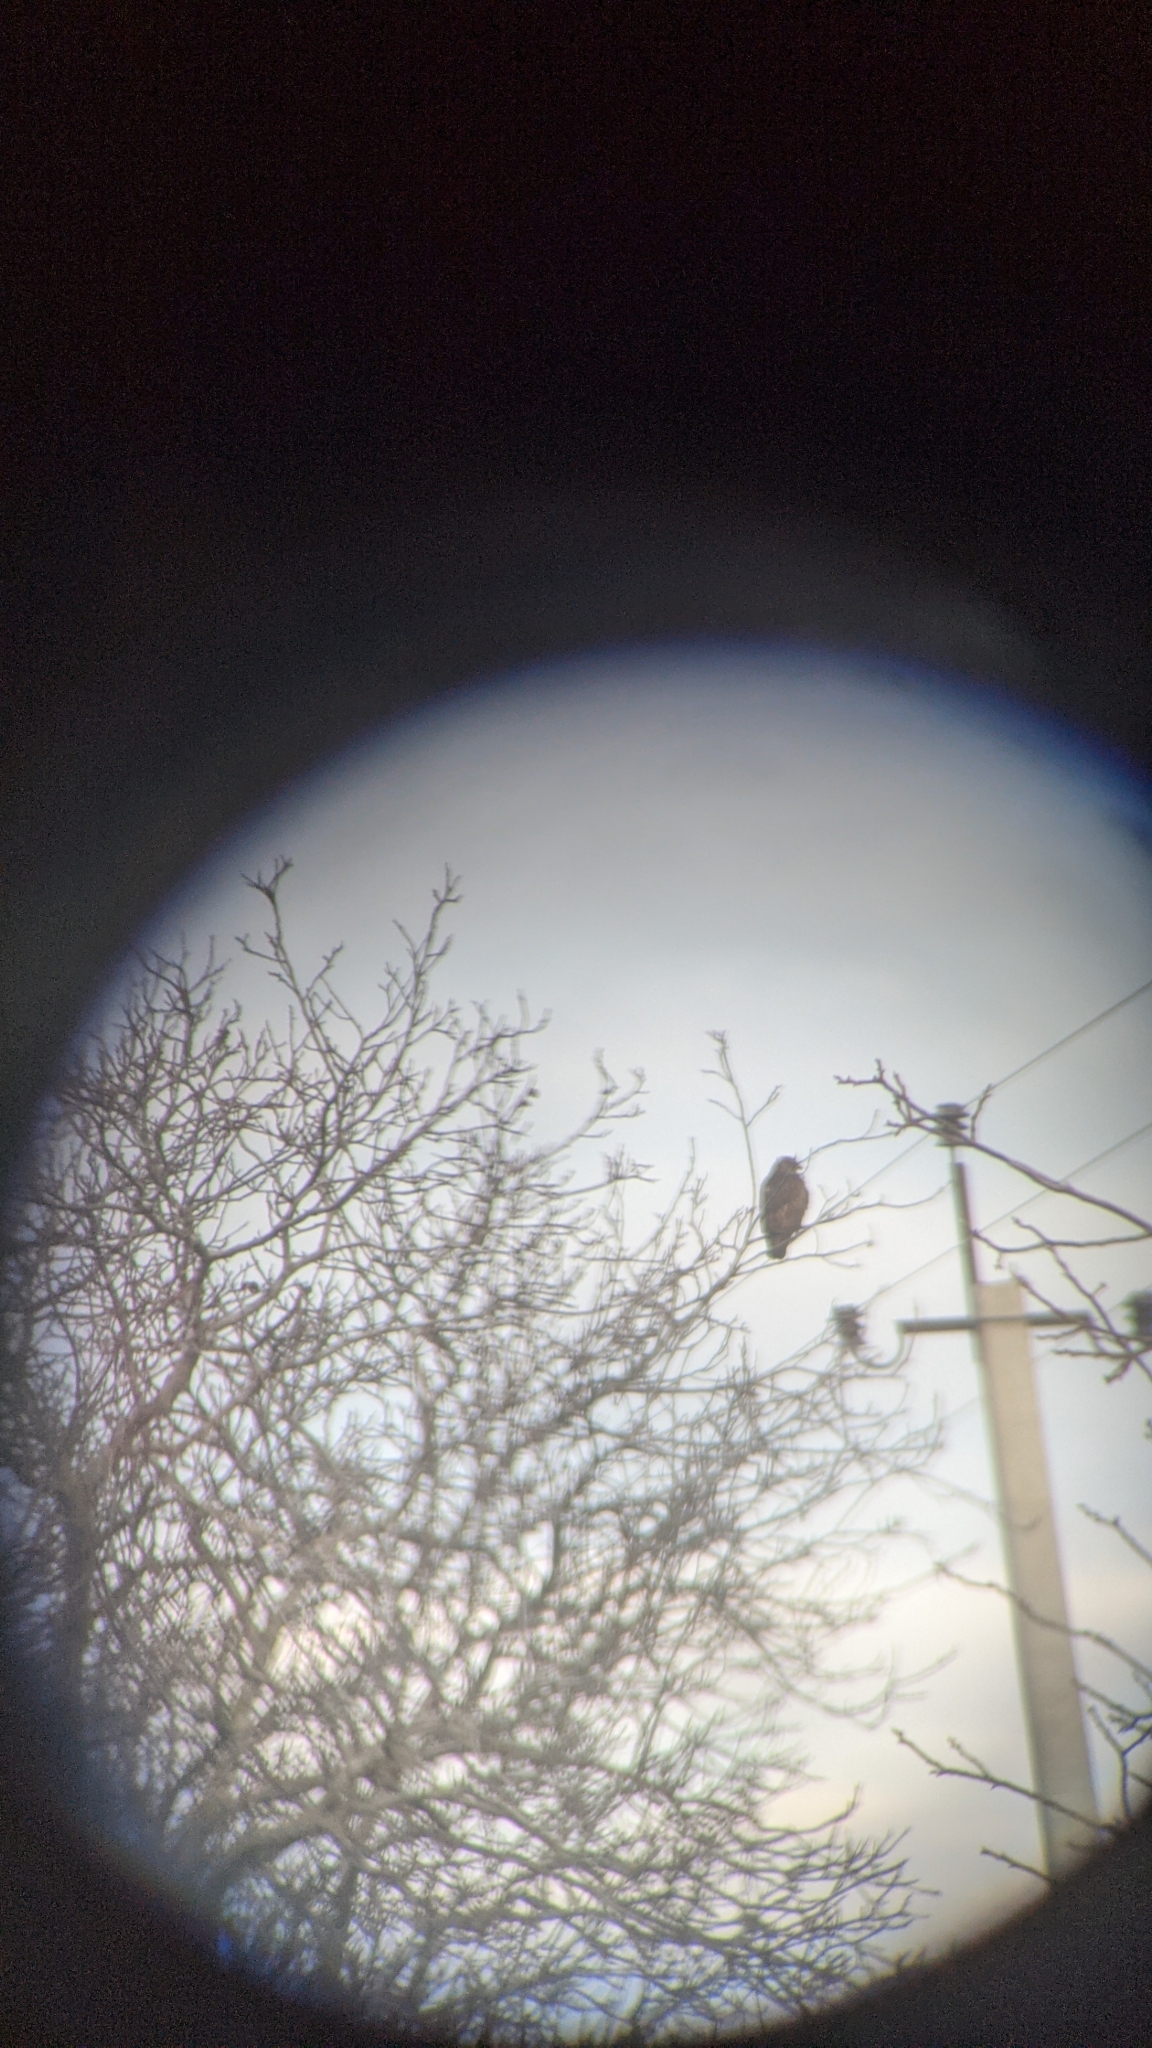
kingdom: Animalia
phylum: Chordata
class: Aves
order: Accipitriformes
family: Accipitridae
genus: Buteo
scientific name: Buteo buteo
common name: Common buzzard
